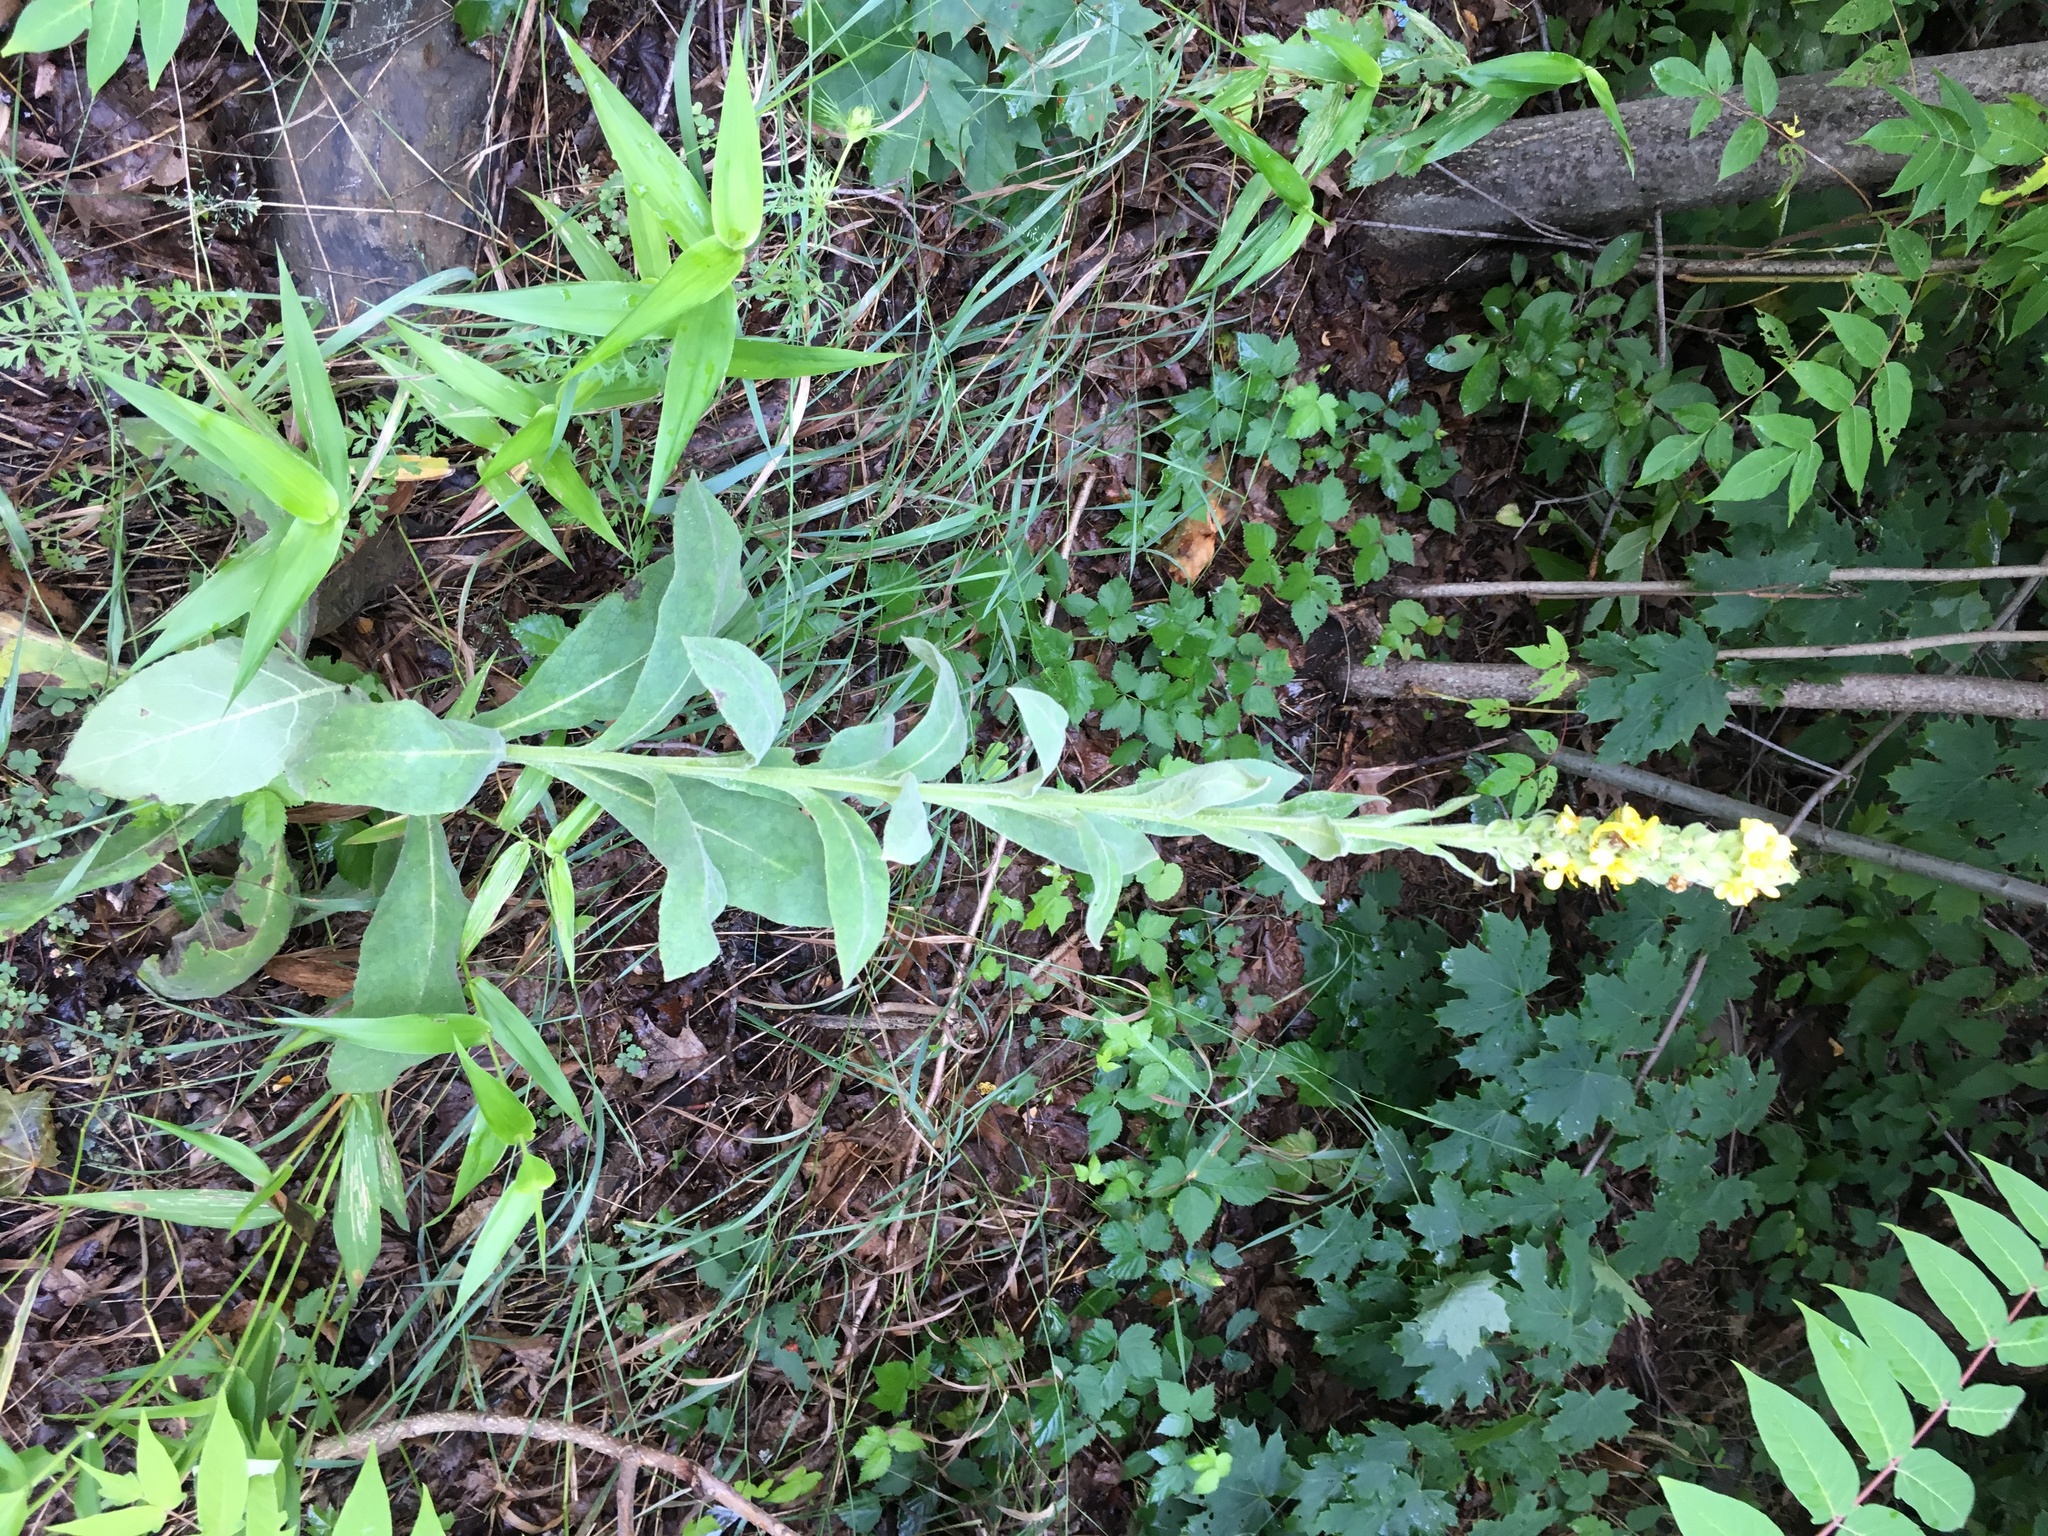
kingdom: Plantae
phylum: Tracheophyta
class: Magnoliopsida
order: Lamiales
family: Scrophulariaceae
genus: Verbascum
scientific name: Verbascum thapsus
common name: Common mullein
